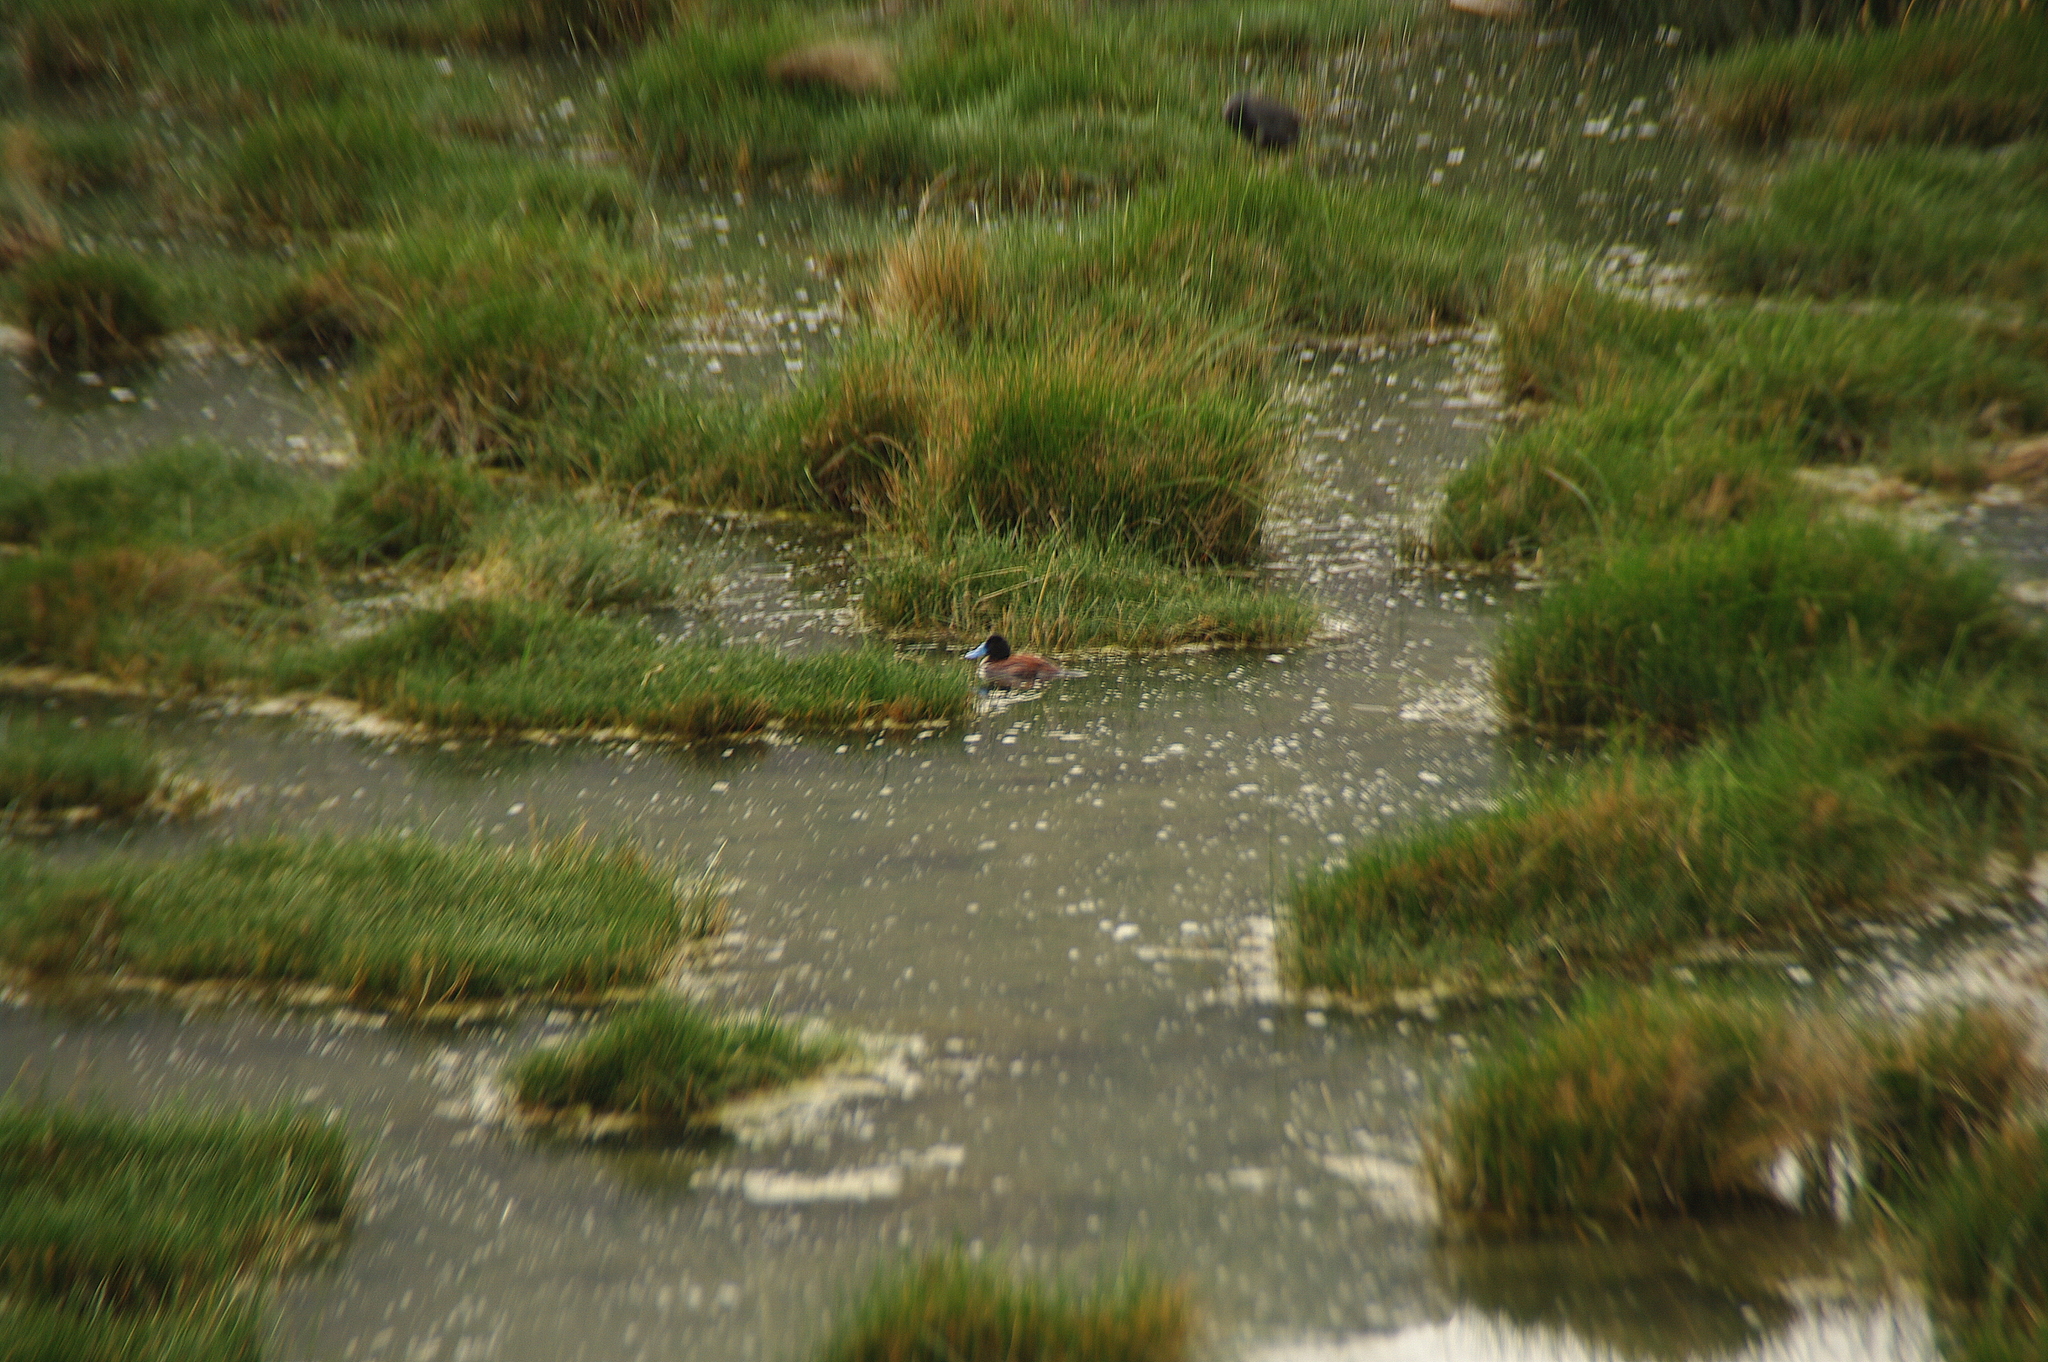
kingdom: Animalia
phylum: Chordata
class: Aves
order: Anseriformes
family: Anatidae
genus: Oxyura
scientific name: Oxyura ferruginea
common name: Andean duck
